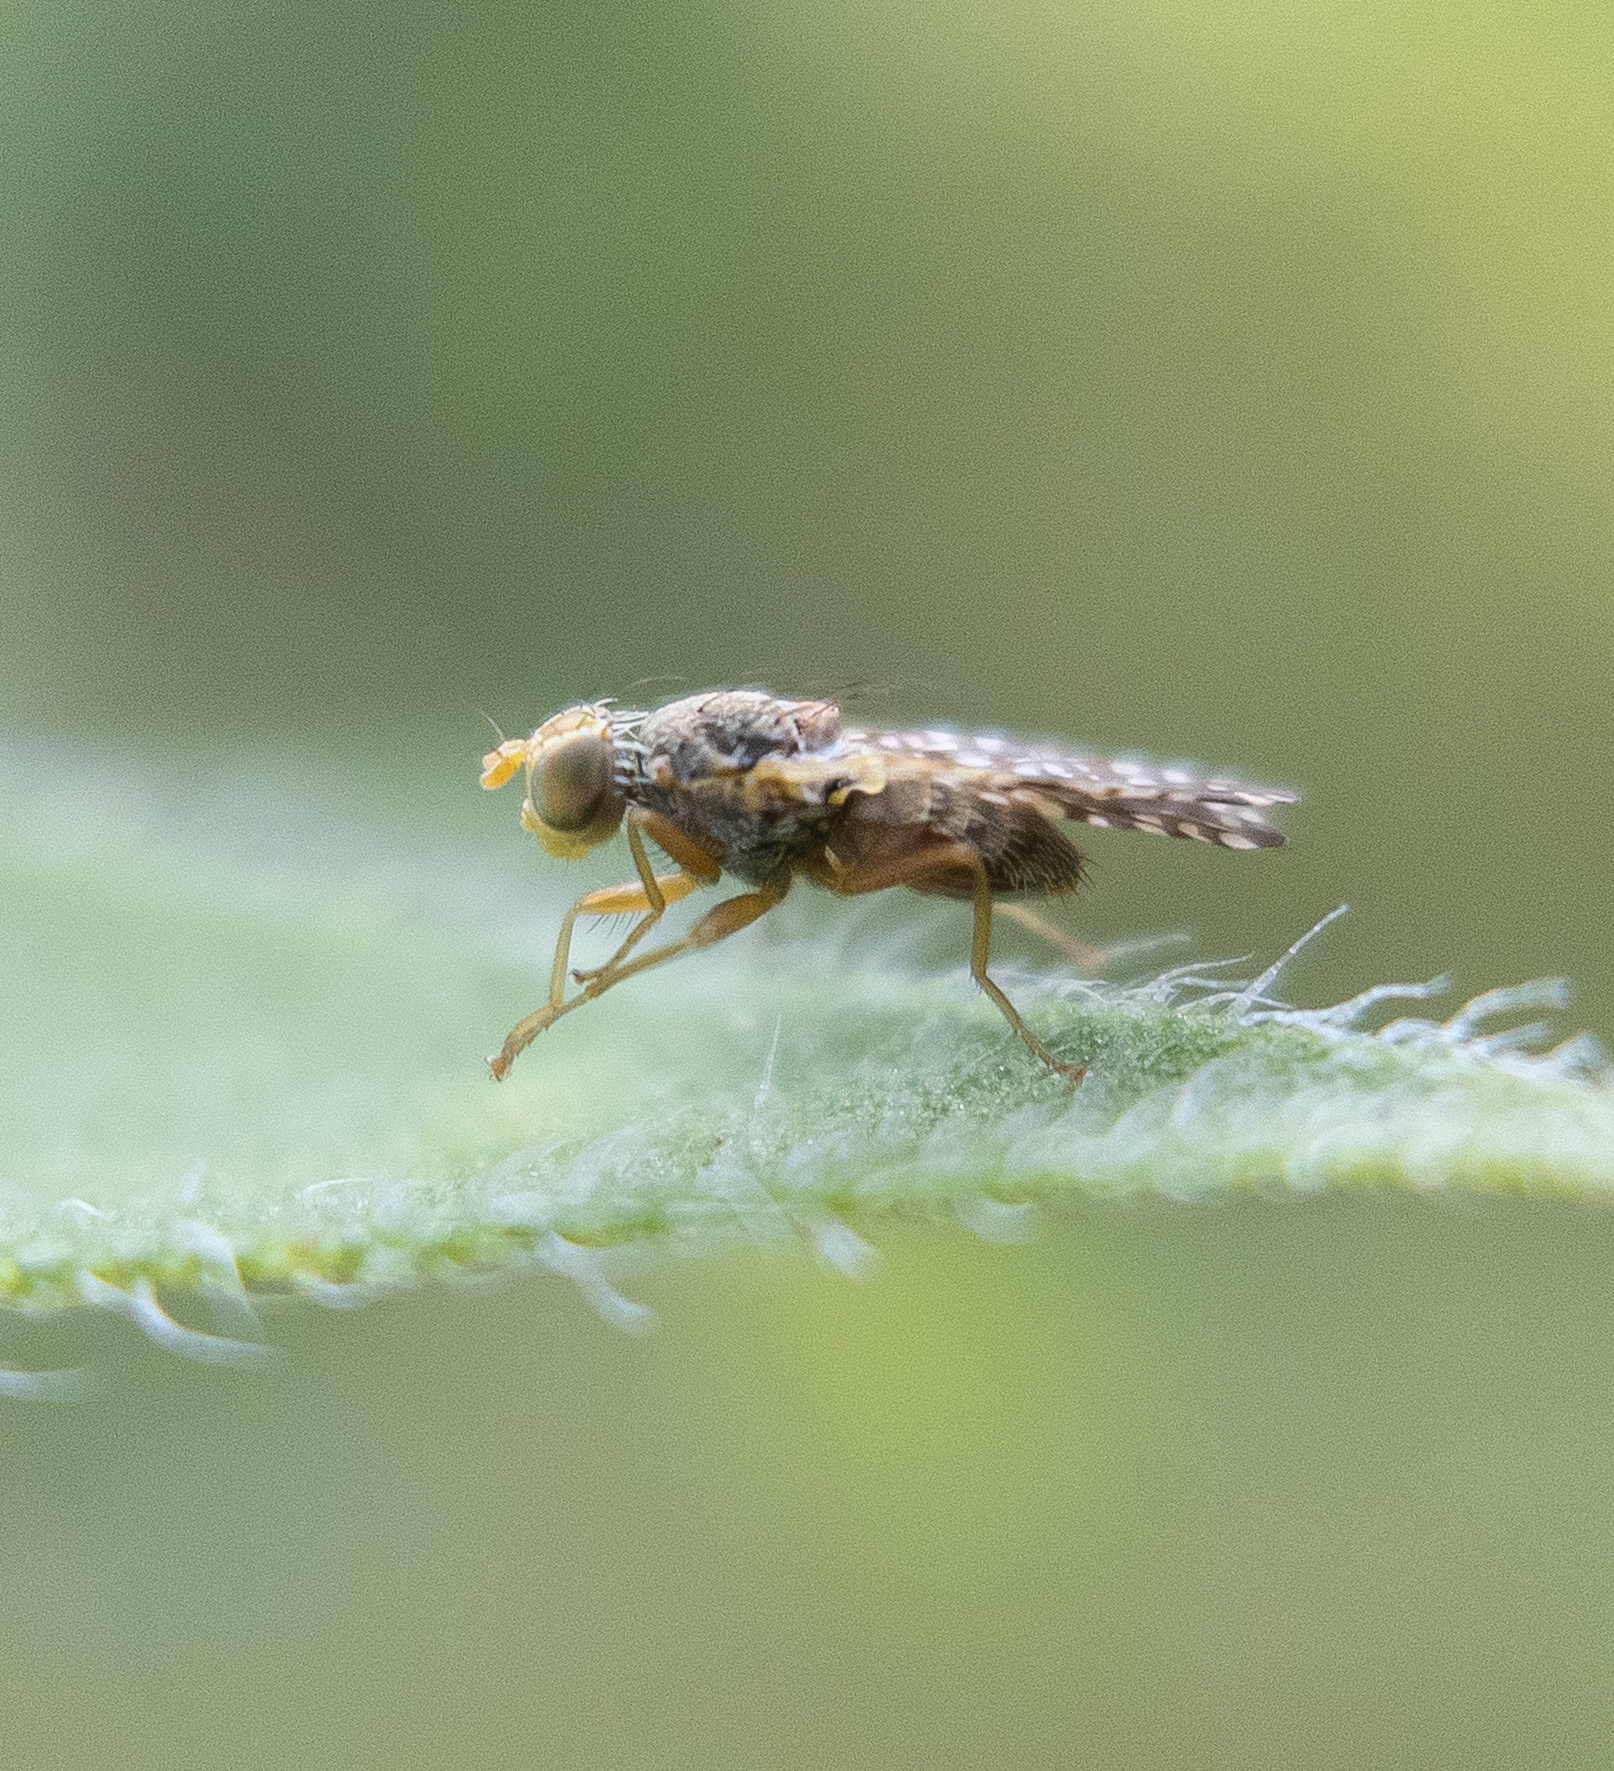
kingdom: Animalia
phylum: Arthropoda
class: Insecta
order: Diptera
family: Tephritidae
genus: Neotephritis
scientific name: Neotephritis finalis
